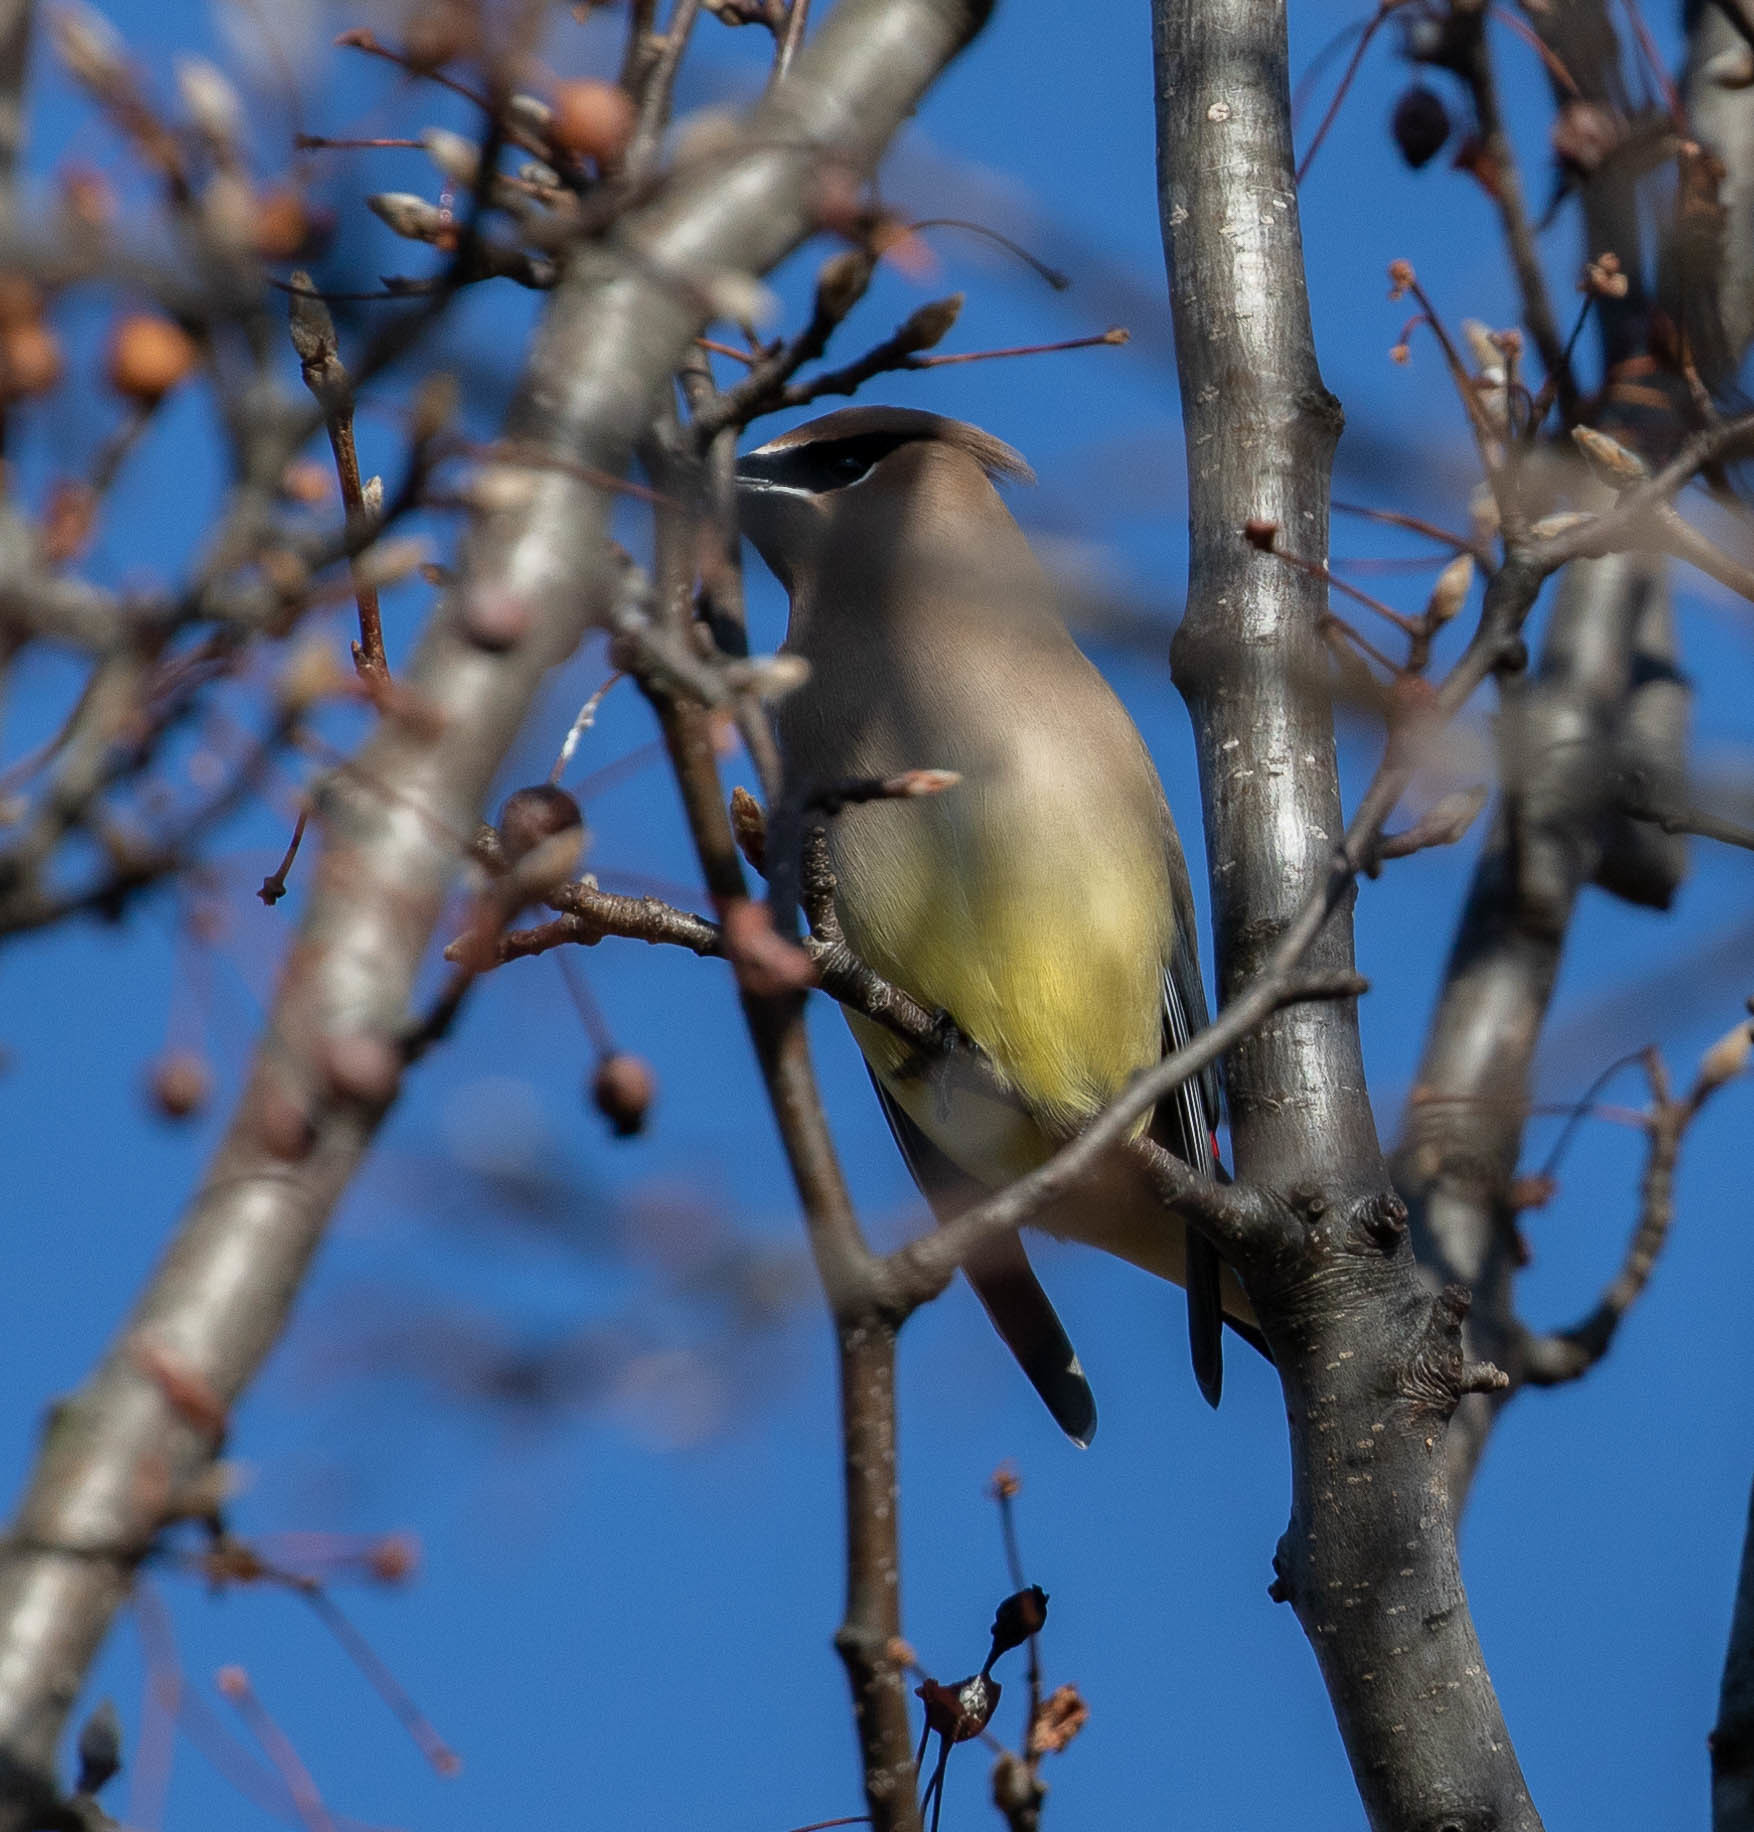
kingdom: Animalia
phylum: Chordata
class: Aves
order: Passeriformes
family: Bombycillidae
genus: Bombycilla
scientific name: Bombycilla cedrorum
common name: Cedar waxwing
